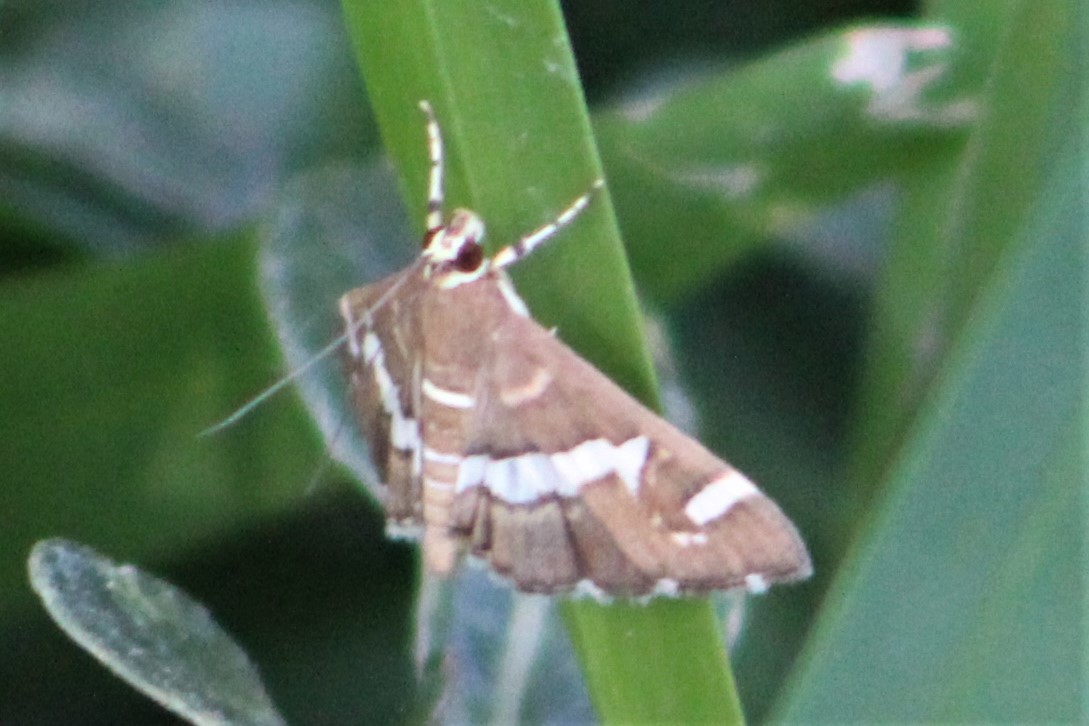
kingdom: Animalia
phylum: Arthropoda
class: Insecta
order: Lepidoptera
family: Crambidae
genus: Spoladea
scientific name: Spoladea recurvalis
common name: Beet webworm moth
